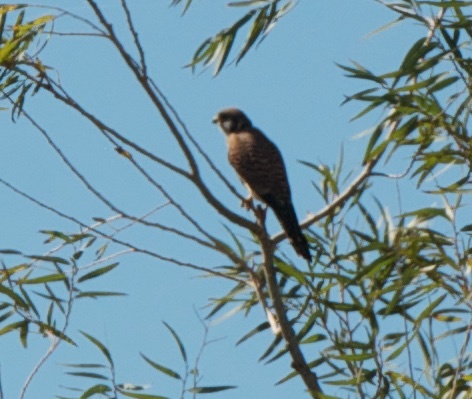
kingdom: Animalia
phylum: Chordata
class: Aves
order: Falconiformes
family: Falconidae
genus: Falco
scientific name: Falco sparverius
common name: American kestrel
